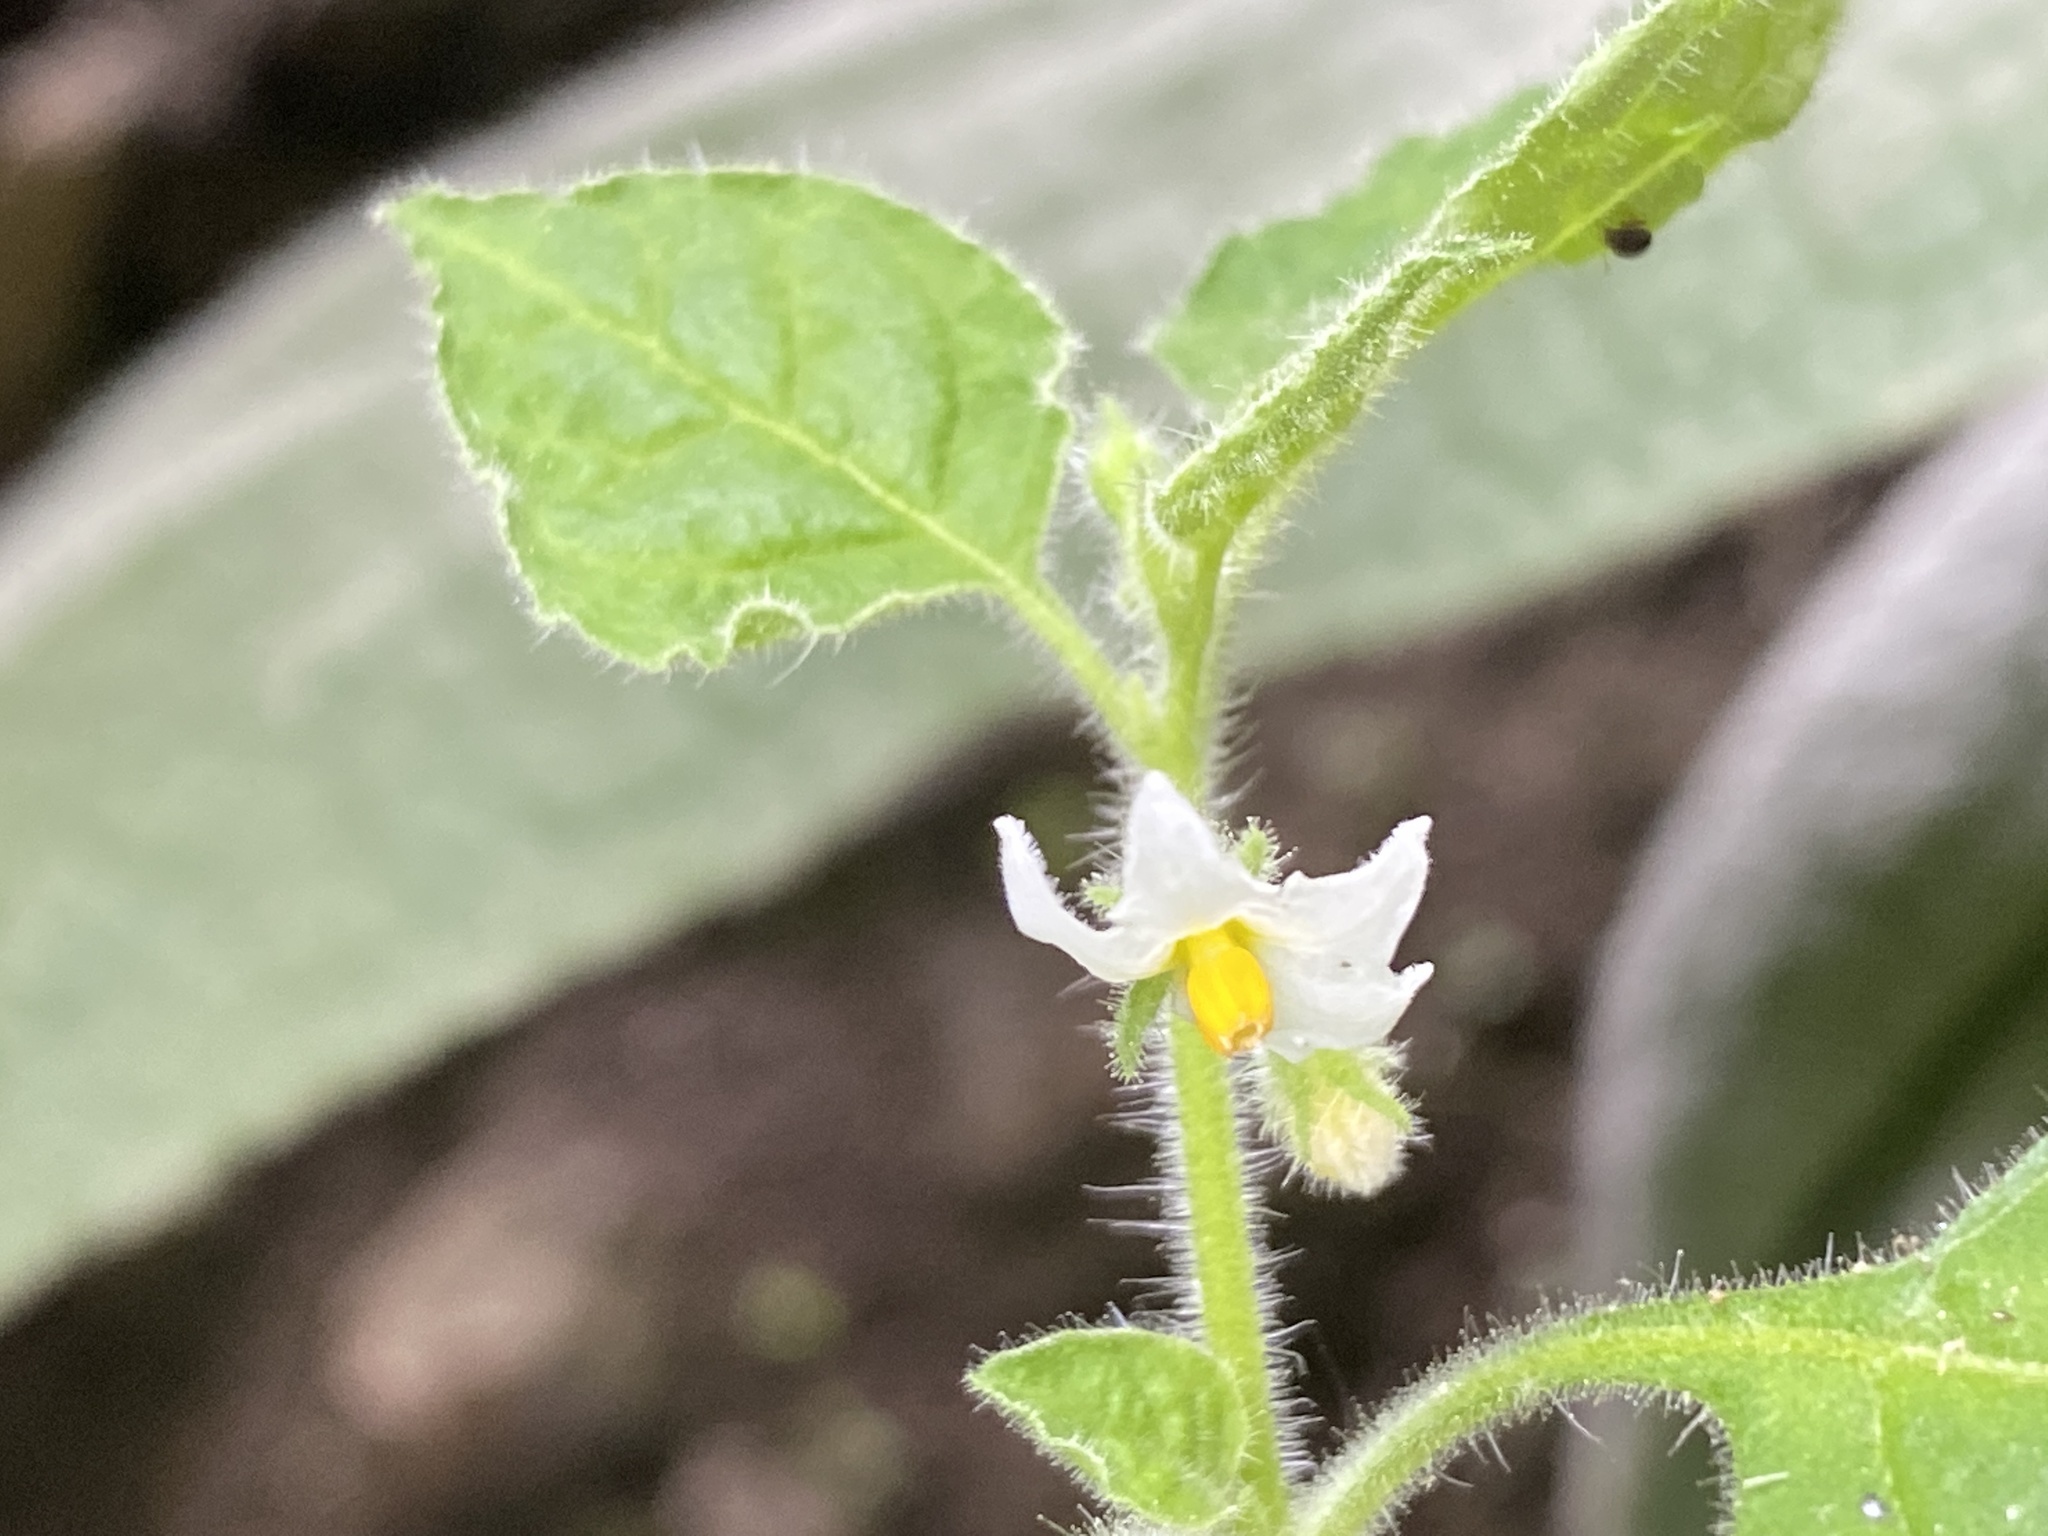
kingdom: Plantae
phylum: Tracheophyta
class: Magnoliopsida
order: Solanales
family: Solanaceae
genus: Solanum
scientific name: Solanum sarrachoides
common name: Leafy-fruited nightshade
